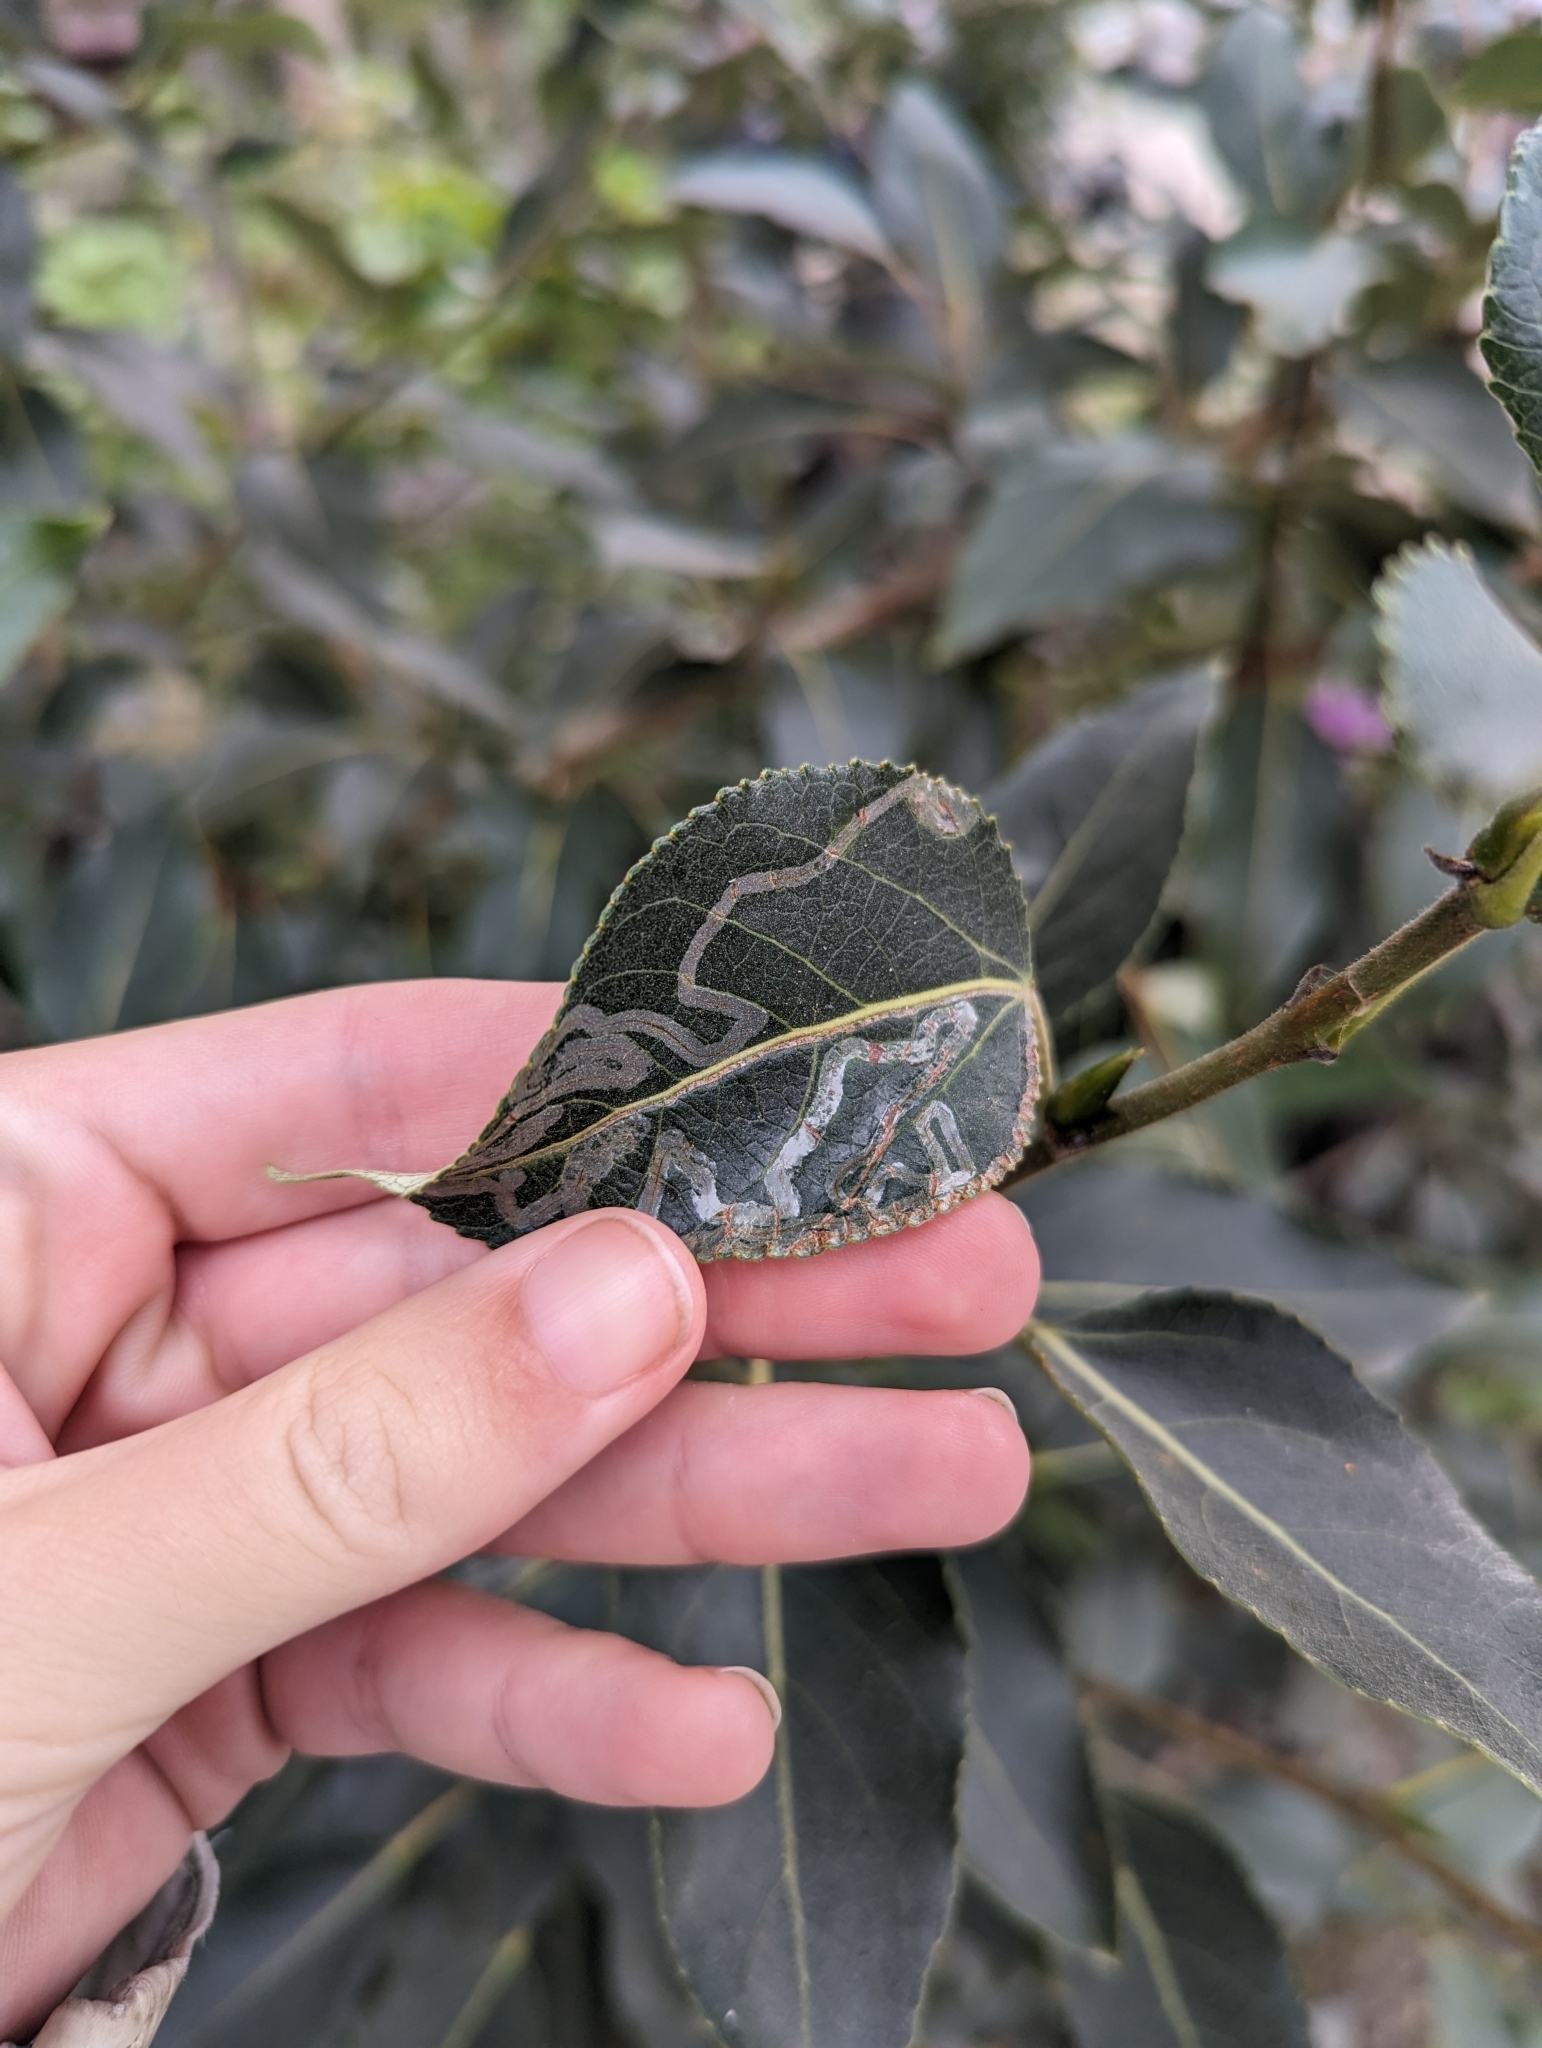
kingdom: Animalia
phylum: Arthropoda
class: Insecta
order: Lepidoptera
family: Gracillariidae
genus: Phyllocnistis
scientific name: Phyllocnistis populiella
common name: Aspen serpentine leafminer moth
